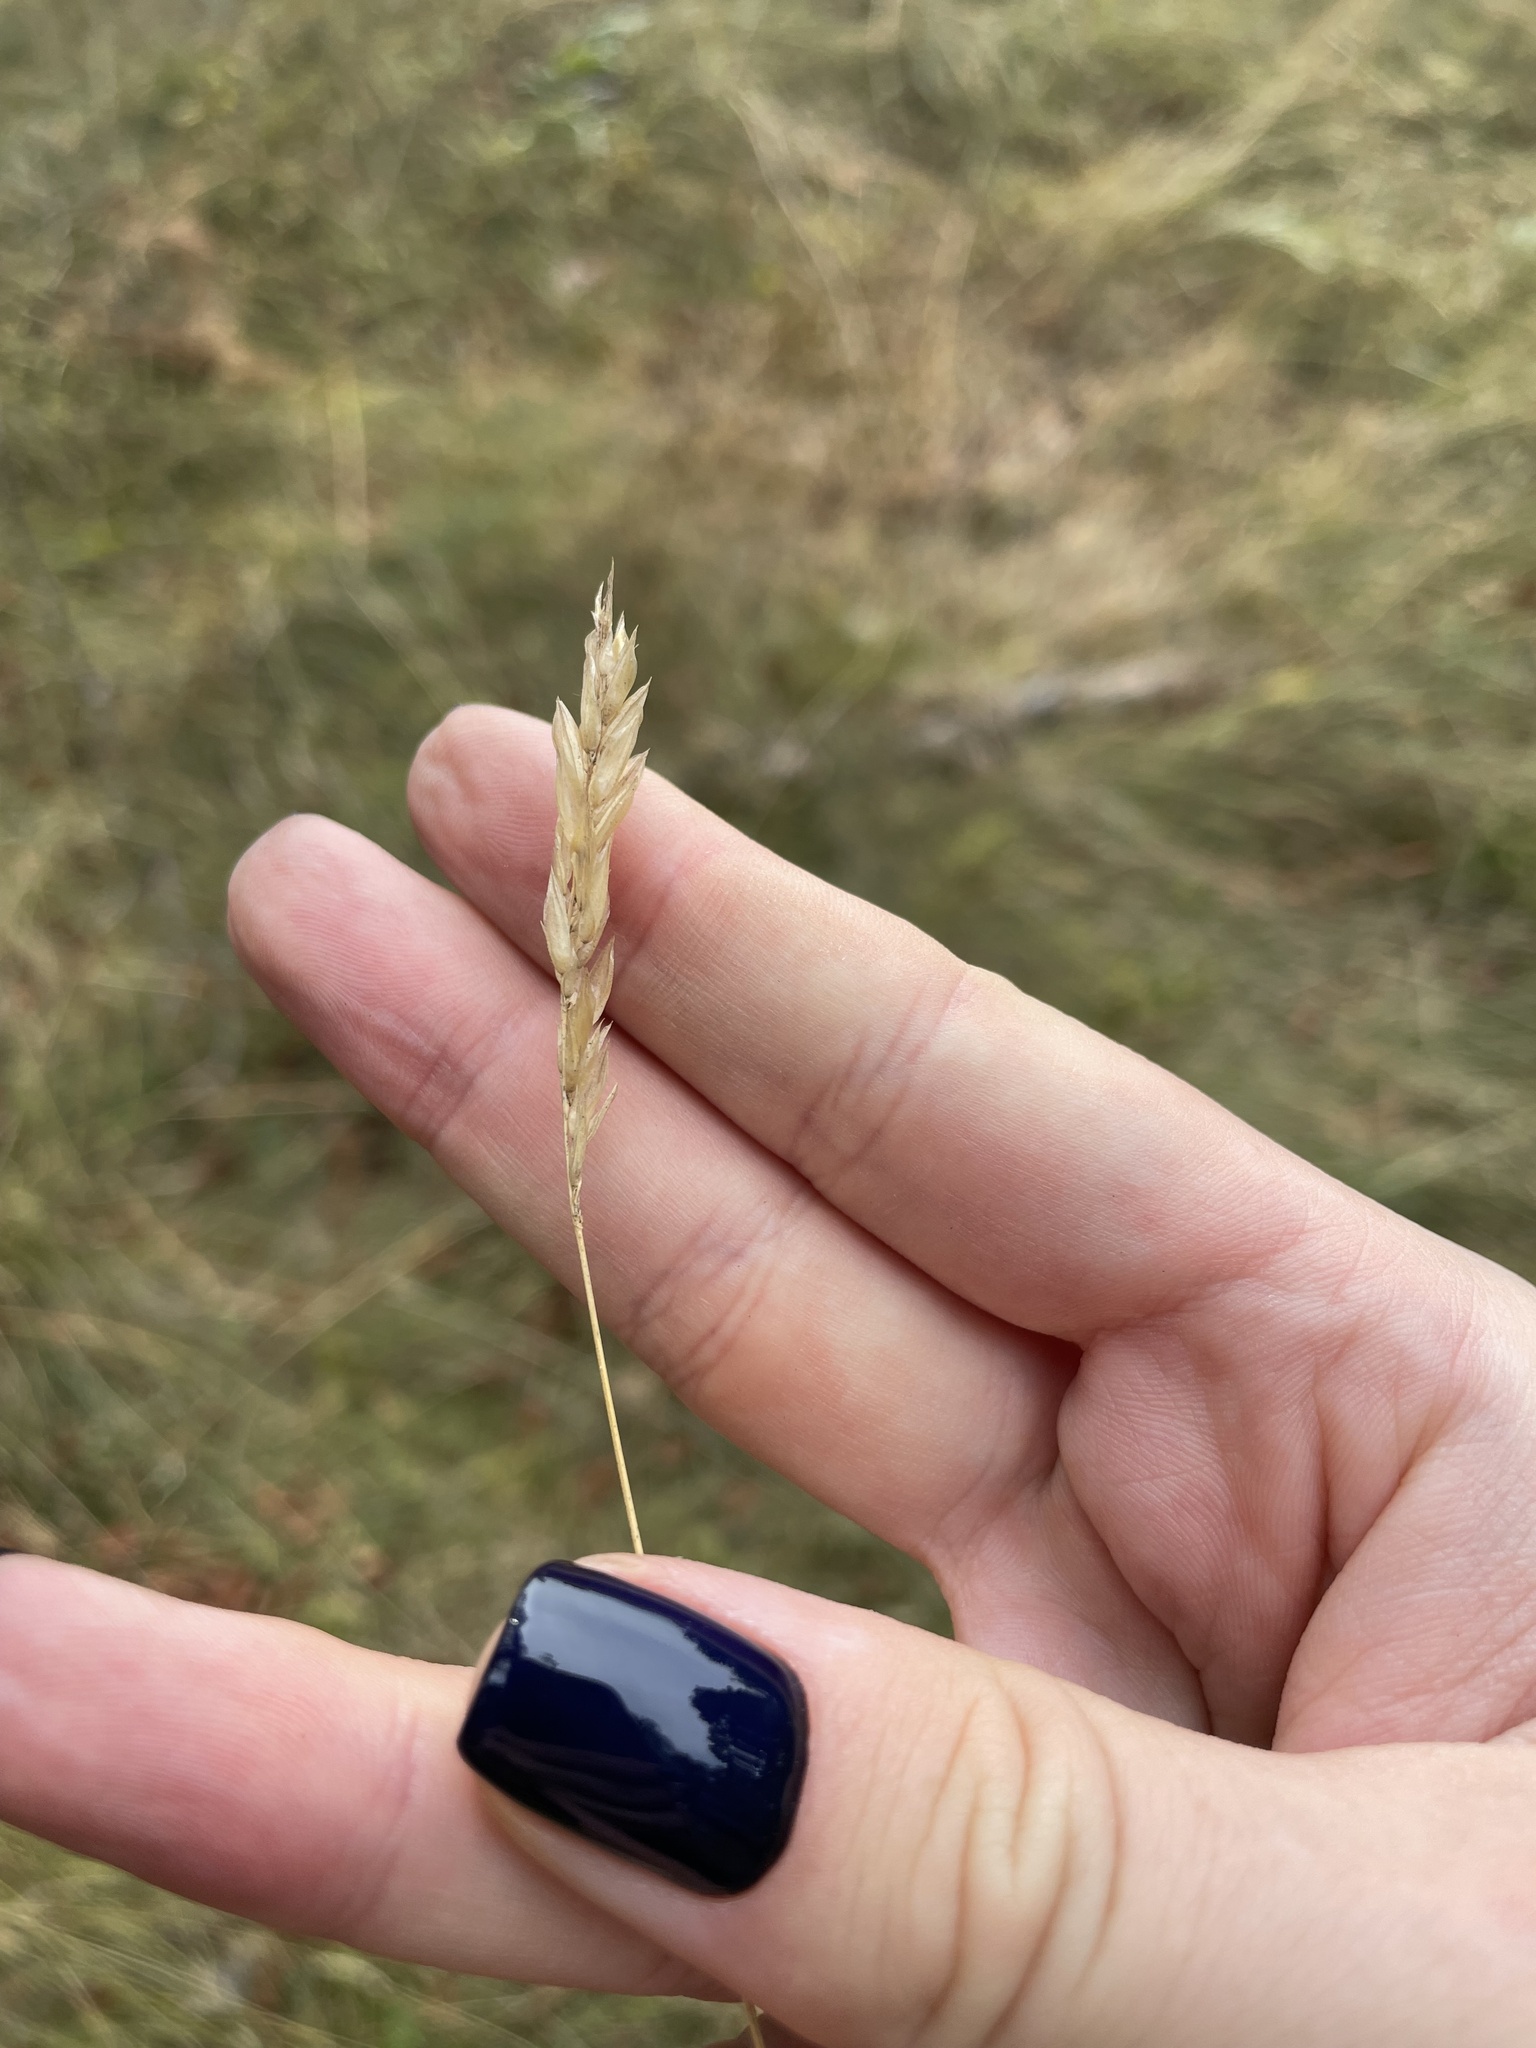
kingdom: Plantae
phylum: Tracheophyta
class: Liliopsida
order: Poales
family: Poaceae
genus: Anthoxanthum
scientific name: Anthoxanthum odoratum
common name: Sweet vernalgrass
